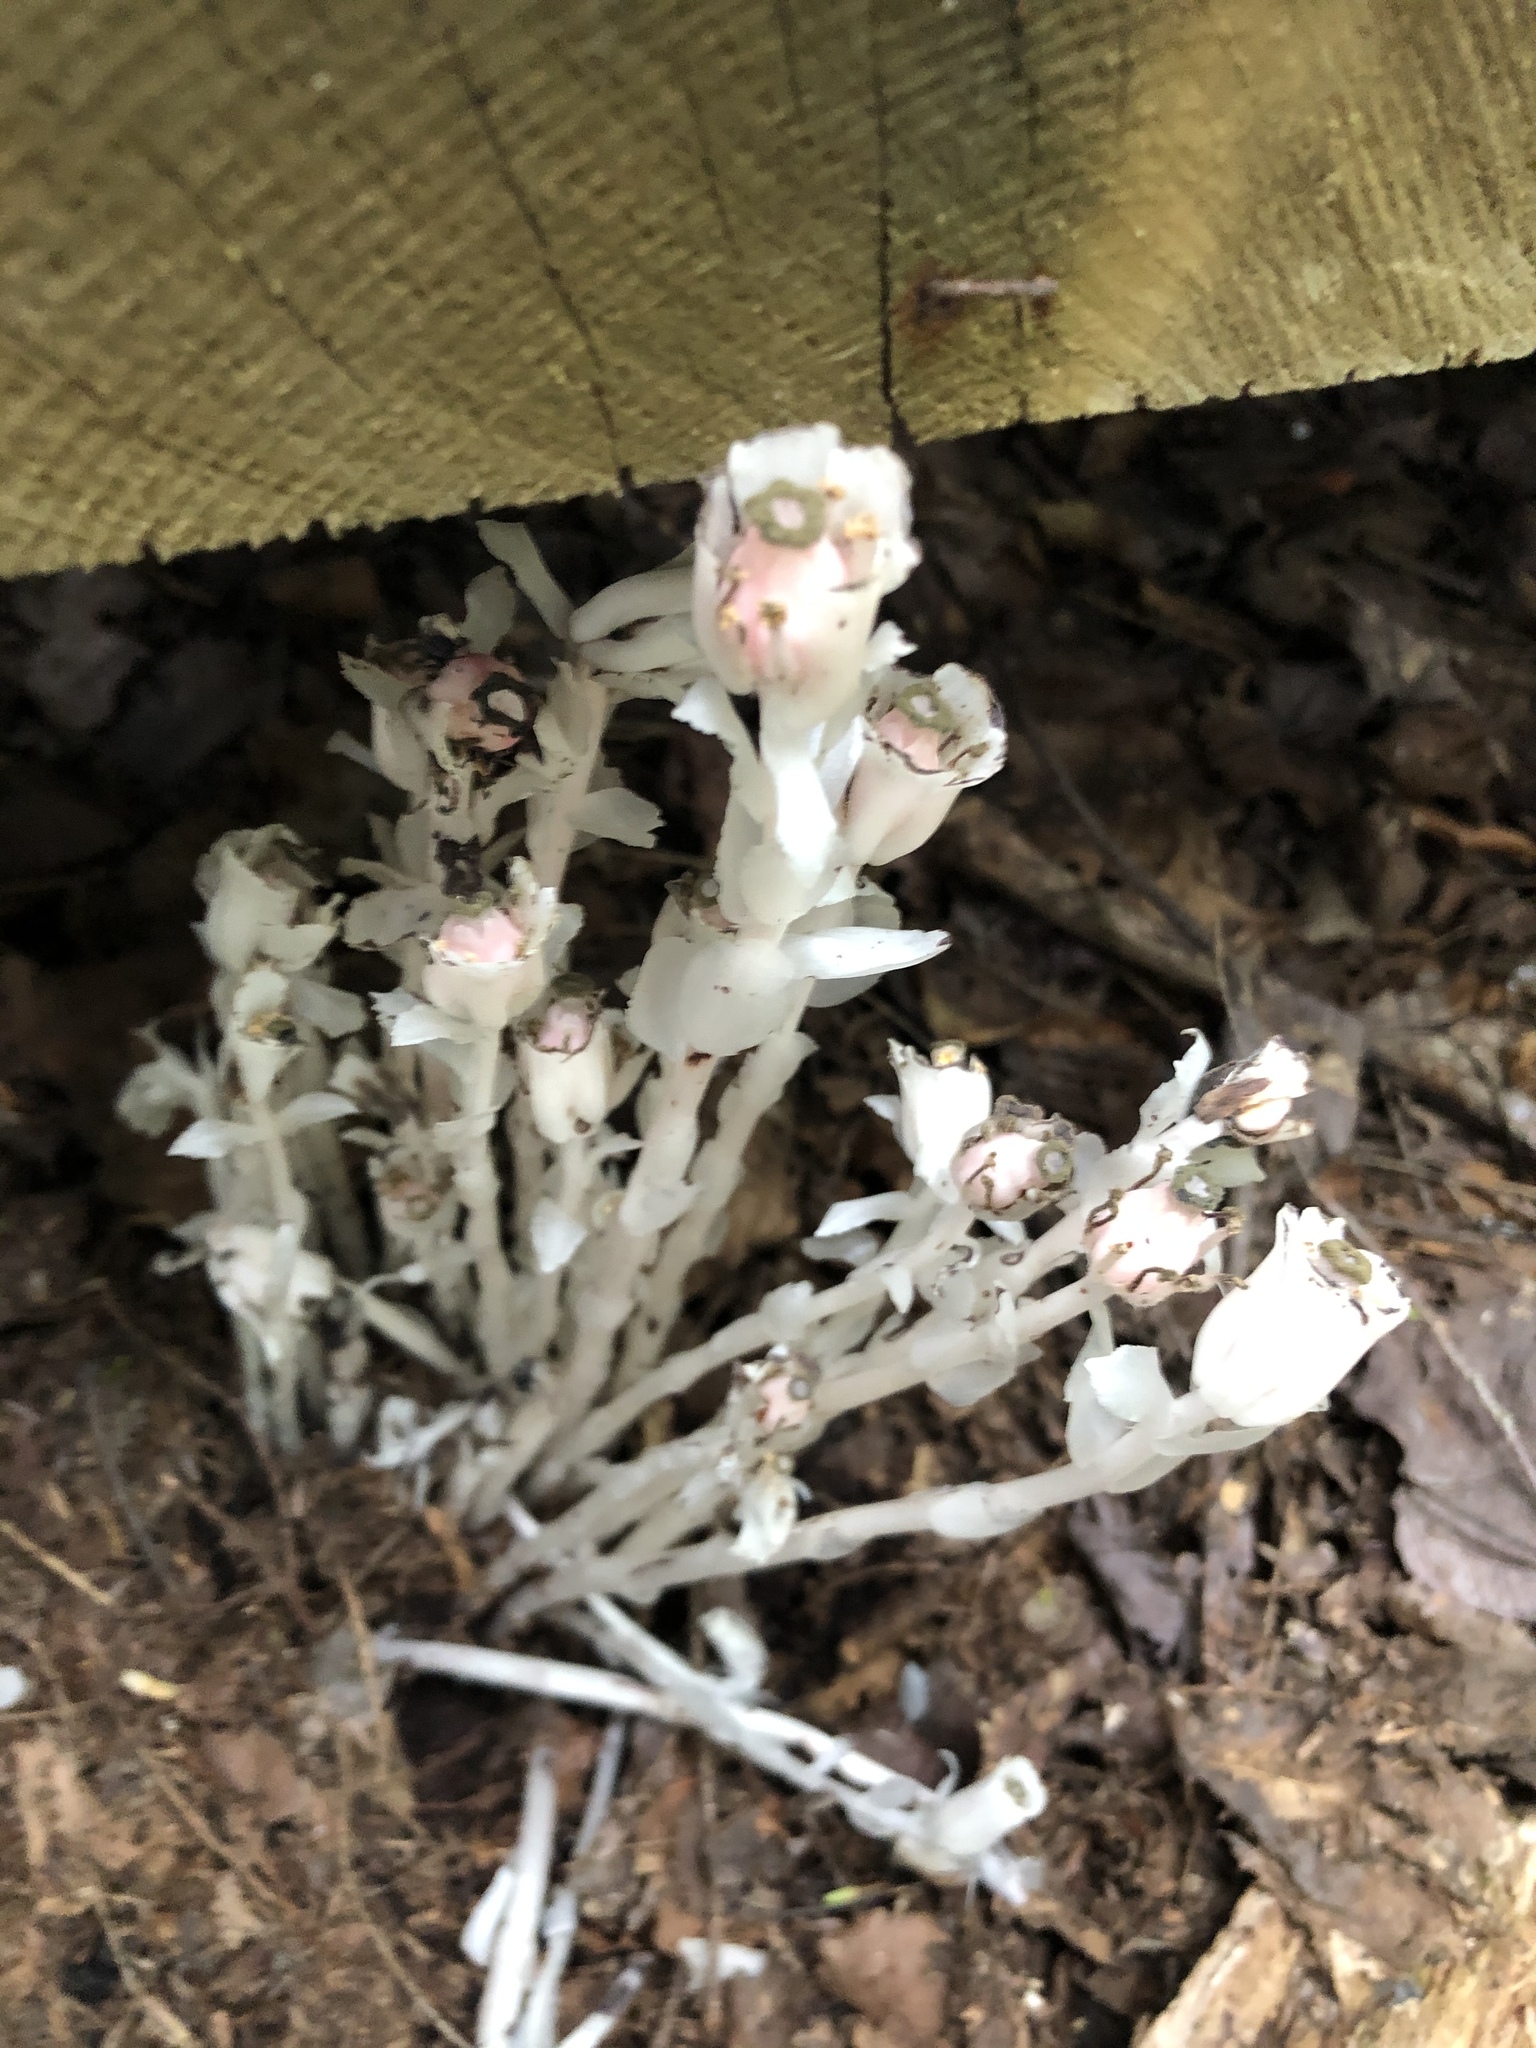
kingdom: Plantae
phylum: Tracheophyta
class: Magnoliopsida
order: Ericales
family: Ericaceae
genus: Monotropa
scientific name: Monotropa uniflora
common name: Convulsion root
